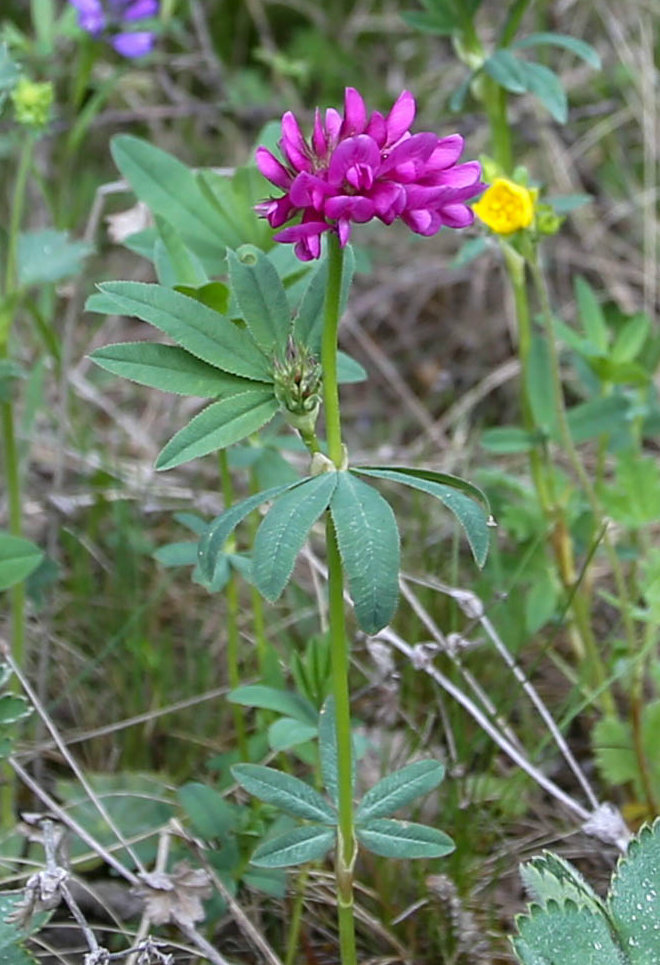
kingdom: Plantae
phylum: Tracheophyta
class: Magnoliopsida
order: Fabales
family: Fabaceae
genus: Trifolium
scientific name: Trifolium lupinaster
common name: Lupine clover
